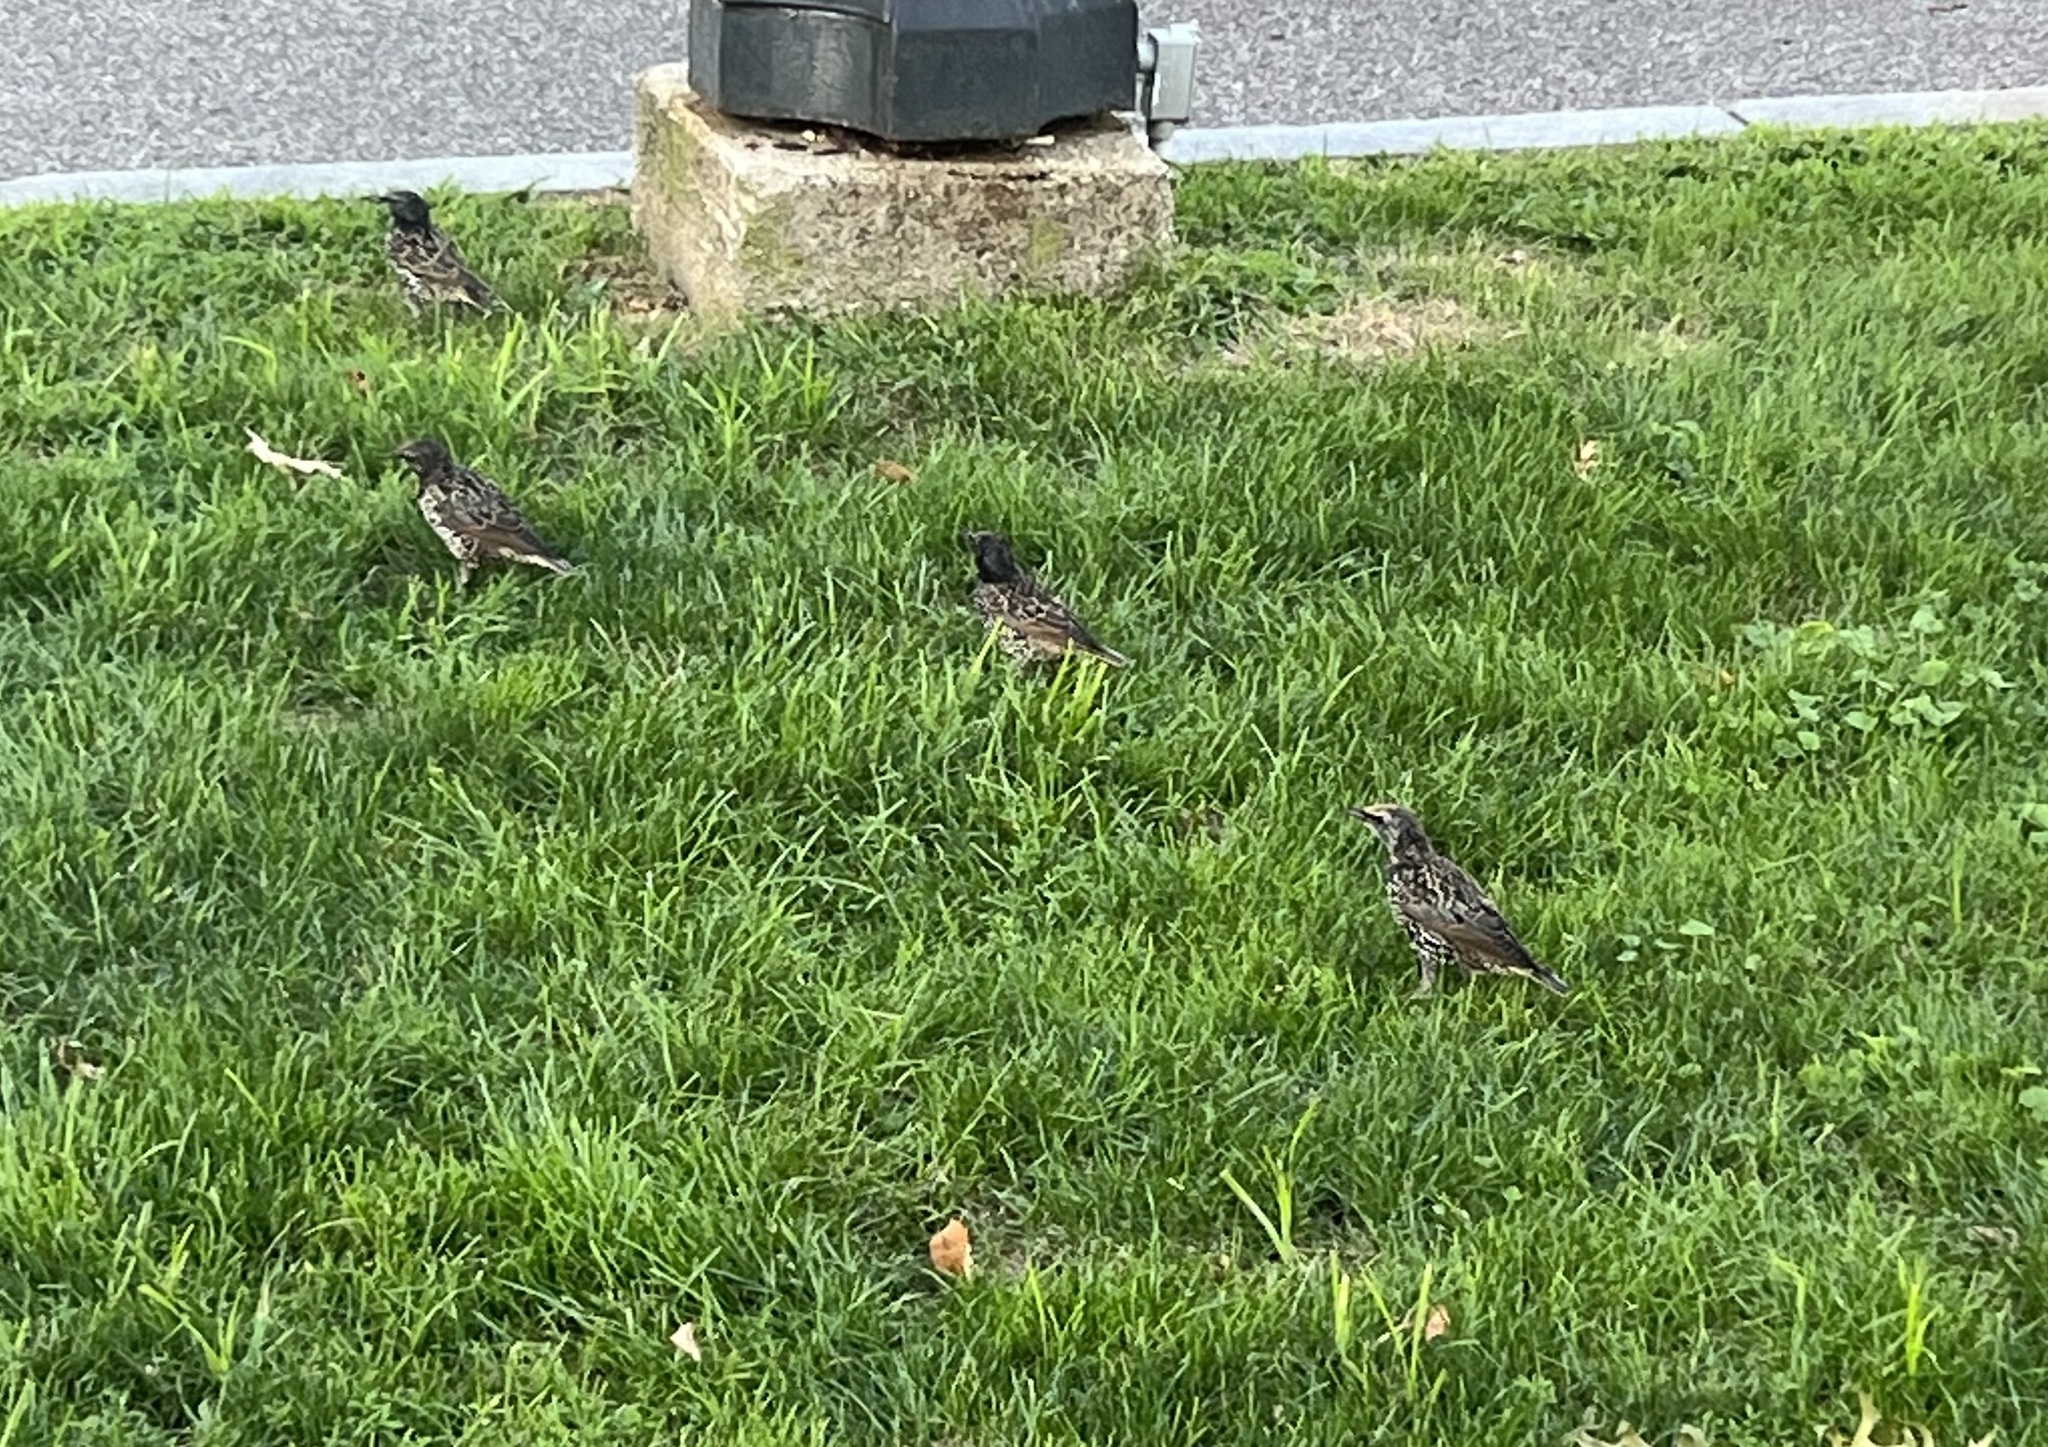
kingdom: Animalia
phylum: Chordata
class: Aves
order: Passeriformes
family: Sturnidae
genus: Sturnus
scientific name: Sturnus vulgaris
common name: Common starling
